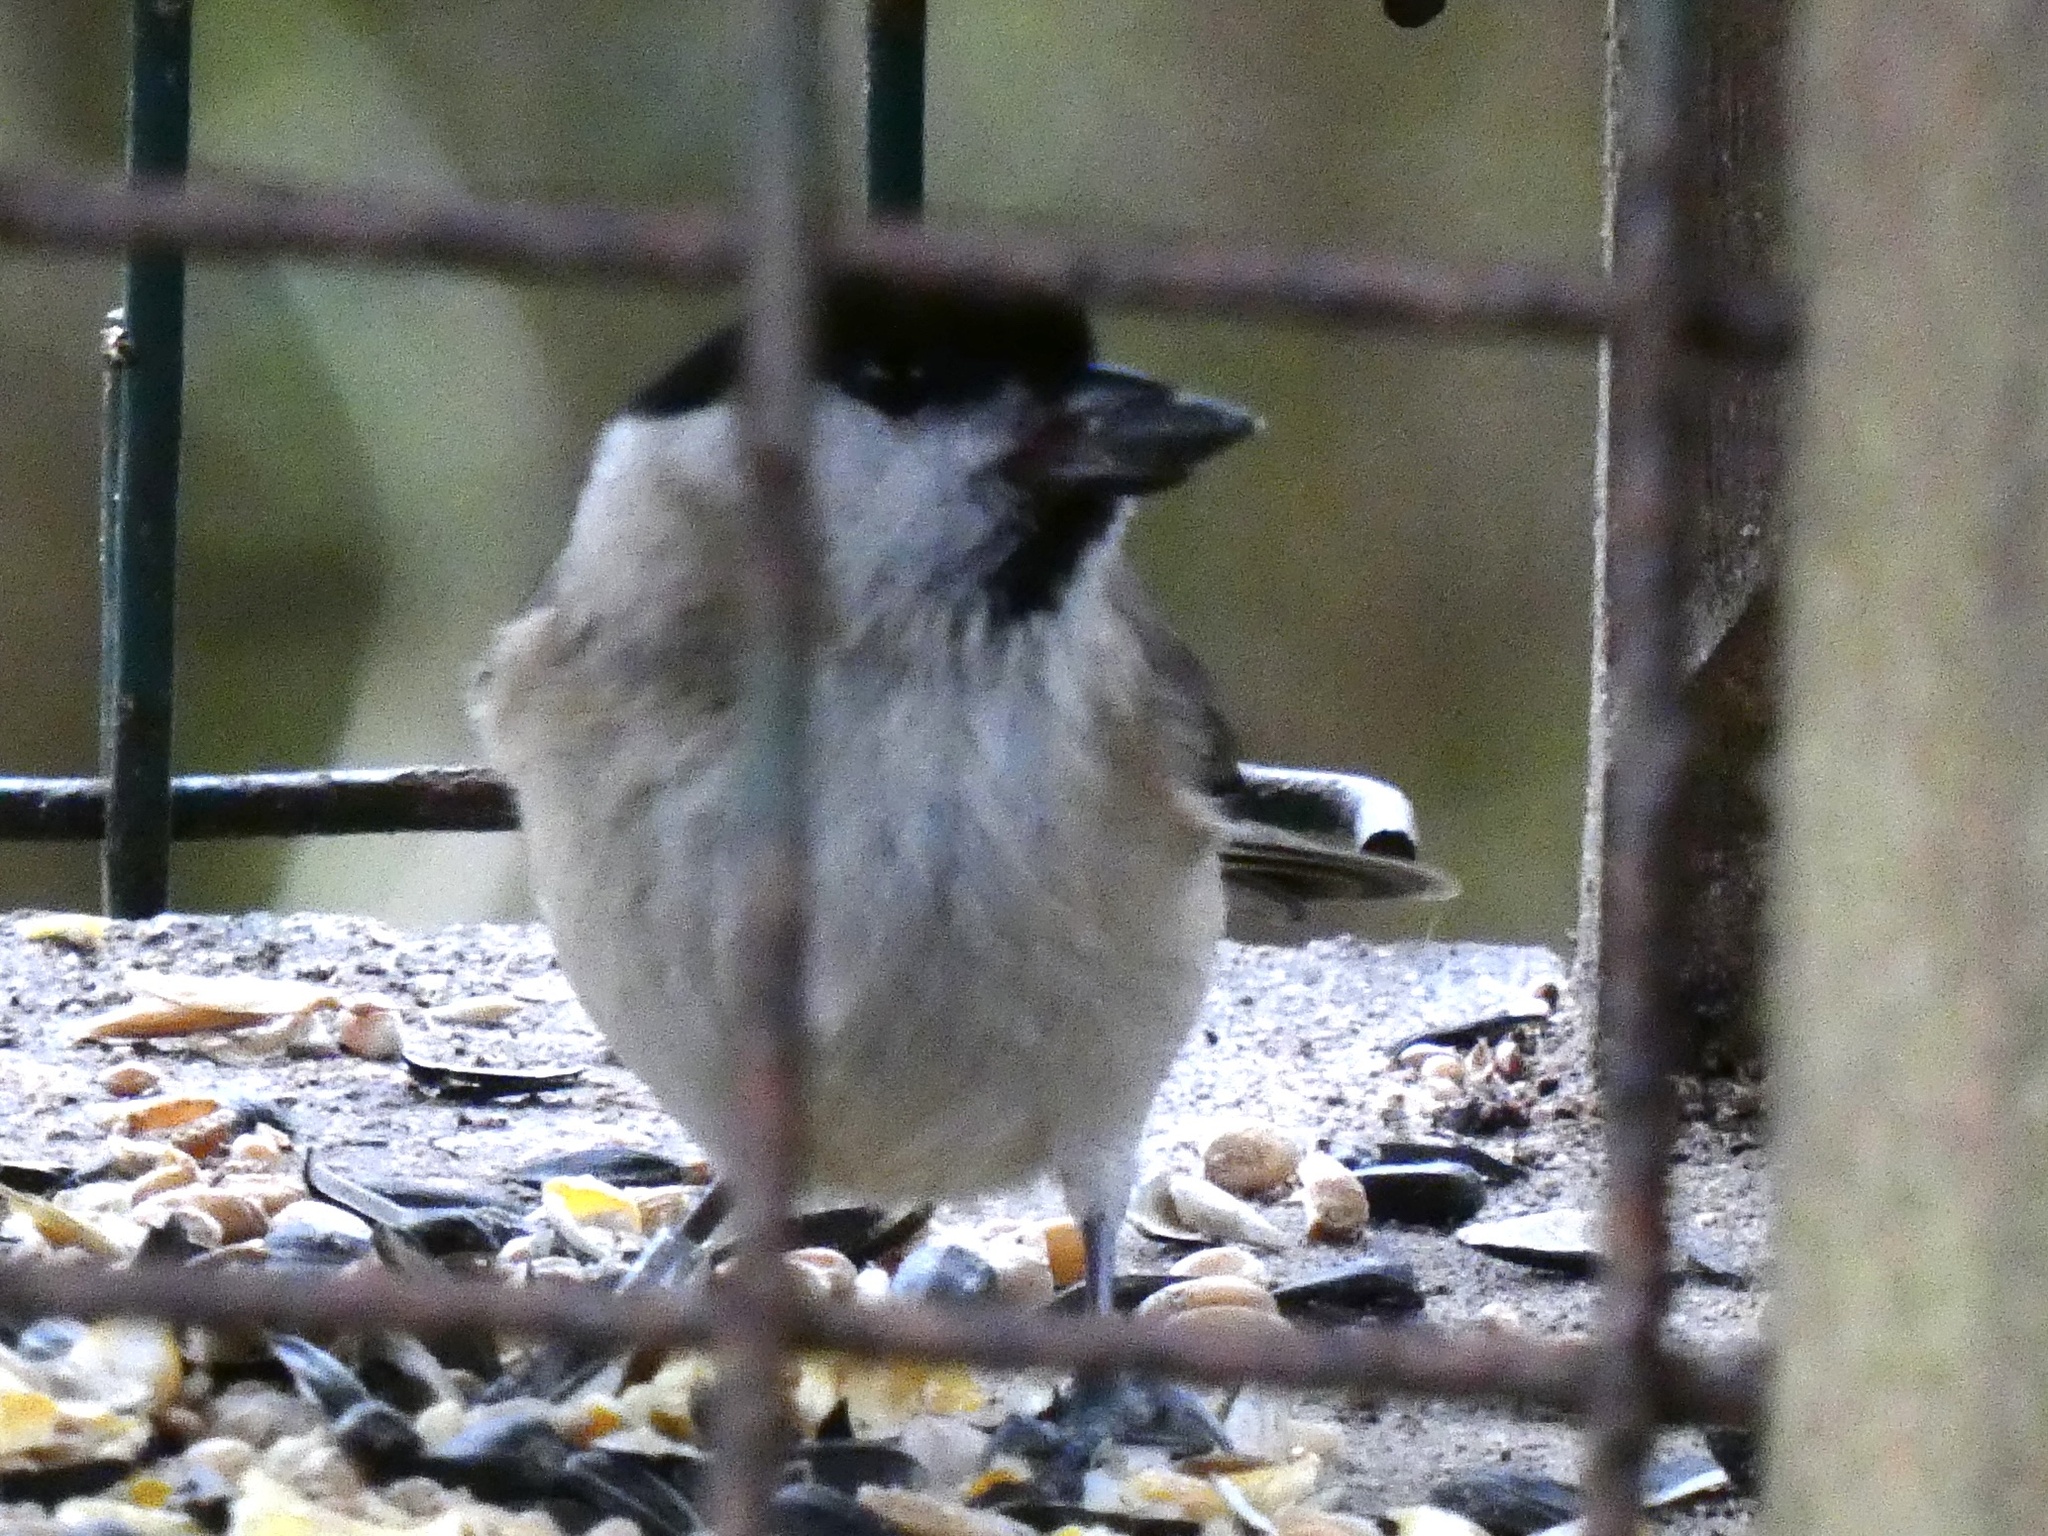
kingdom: Animalia
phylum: Chordata
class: Aves
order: Passeriformes
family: Paridae
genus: Poecile
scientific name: Poecile palustris
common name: Marsh tit
